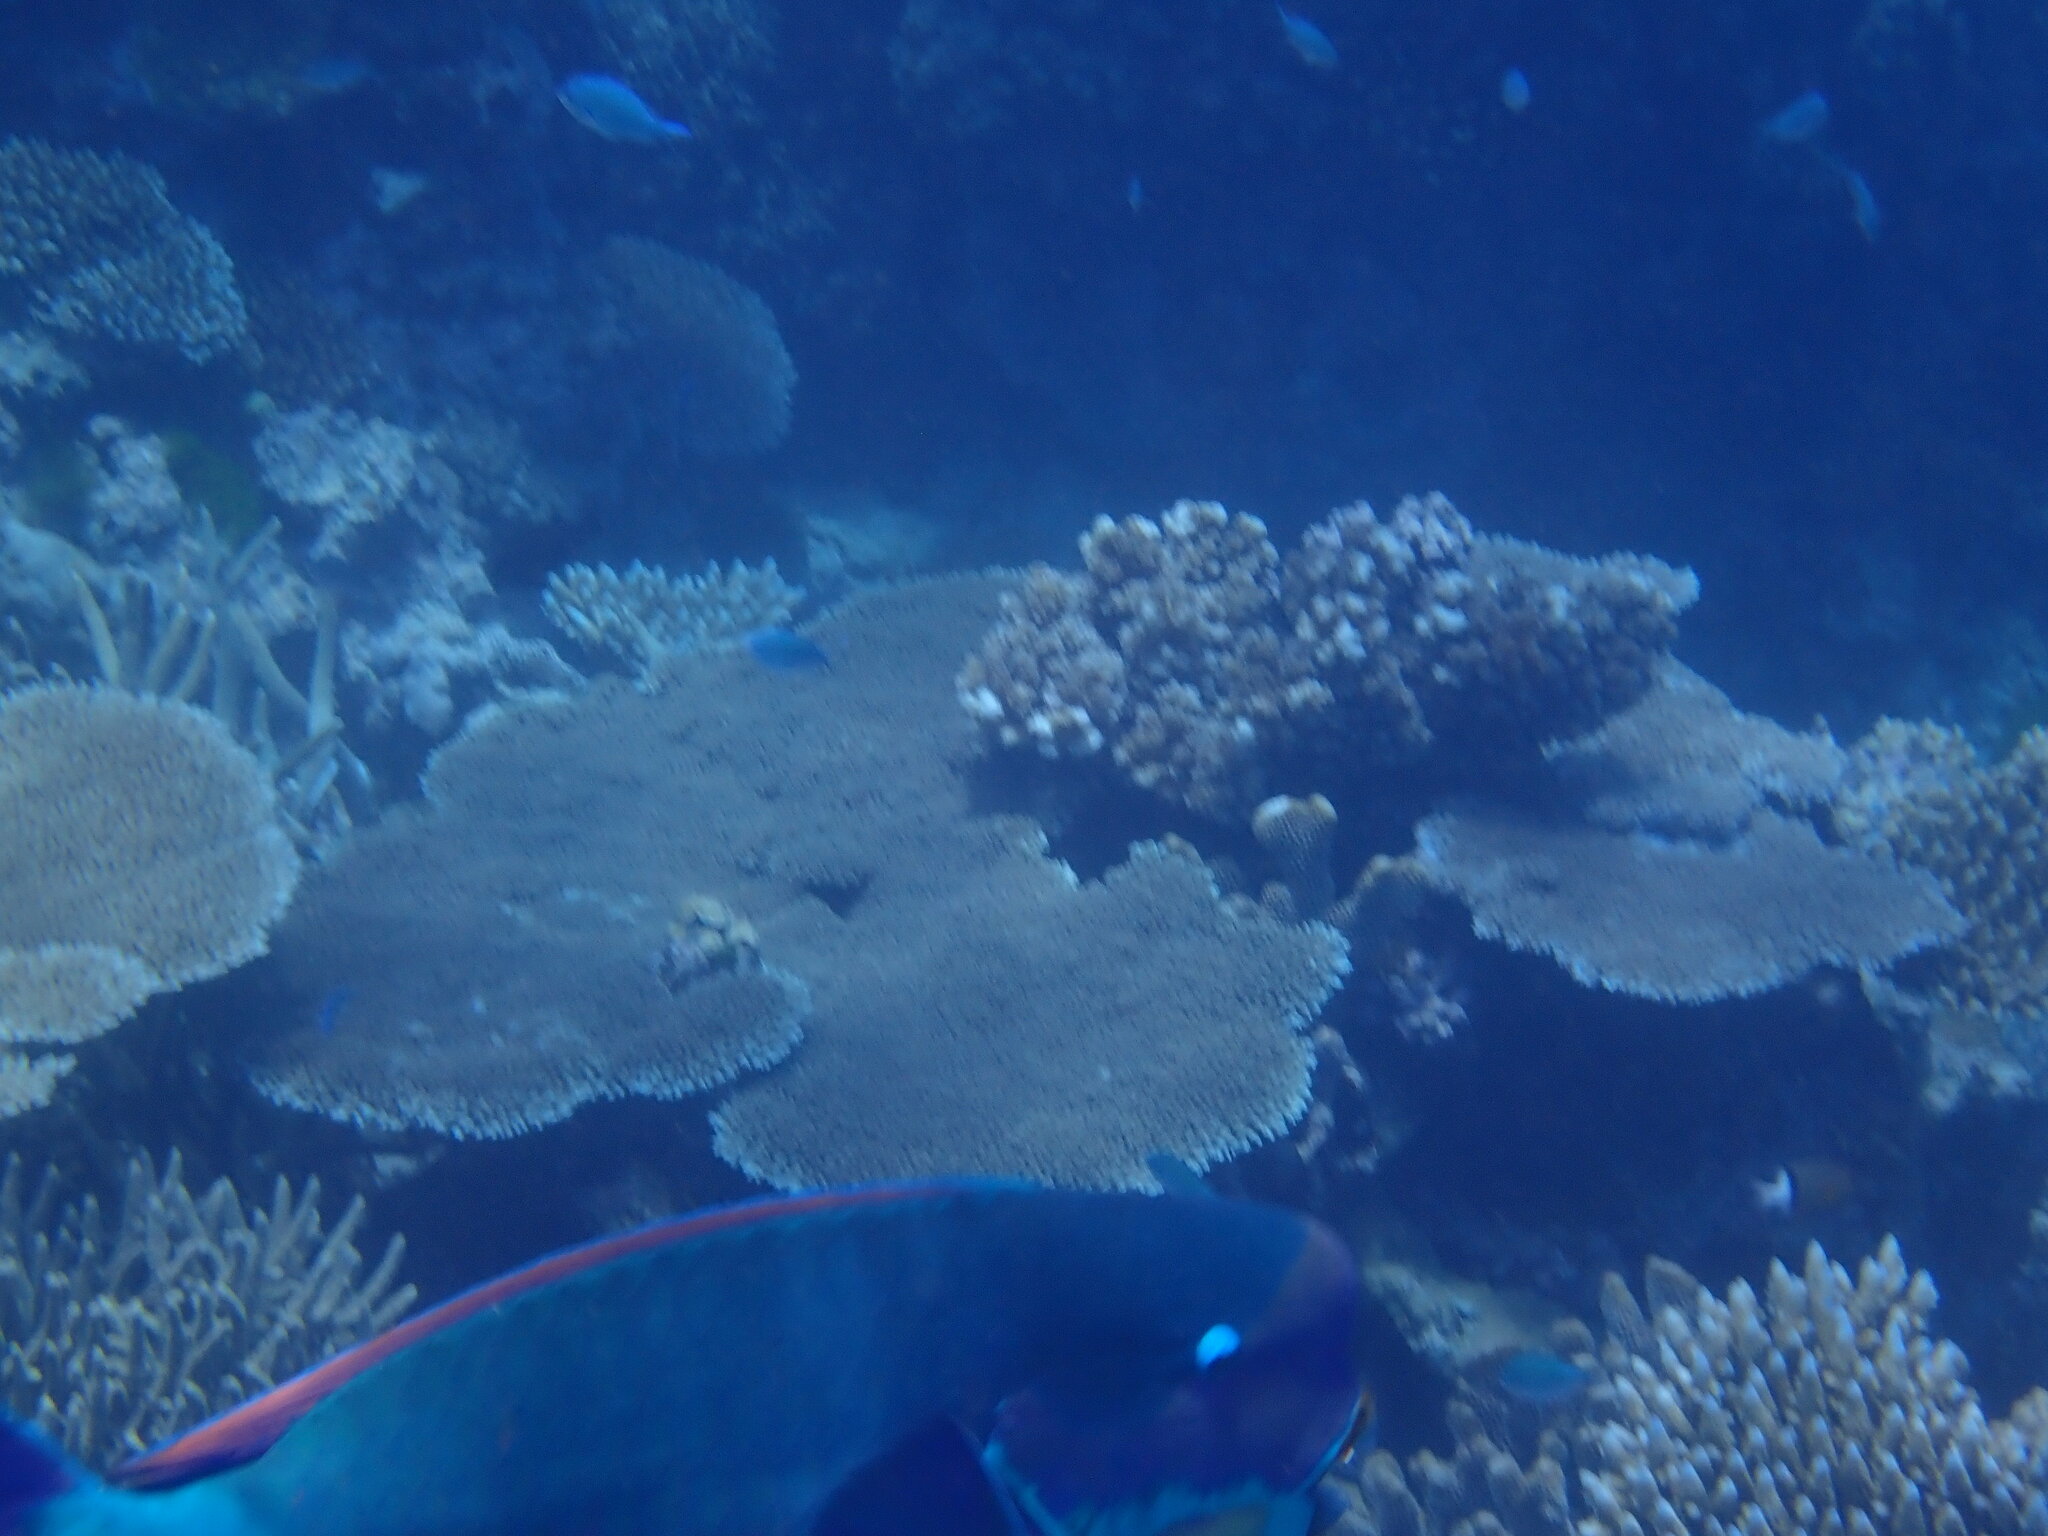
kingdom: Animalia
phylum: Chordata
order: Perciformes
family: Scaridae
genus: Chlorurus
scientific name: Chlorurus microrhinos
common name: Steephead parrotfish
